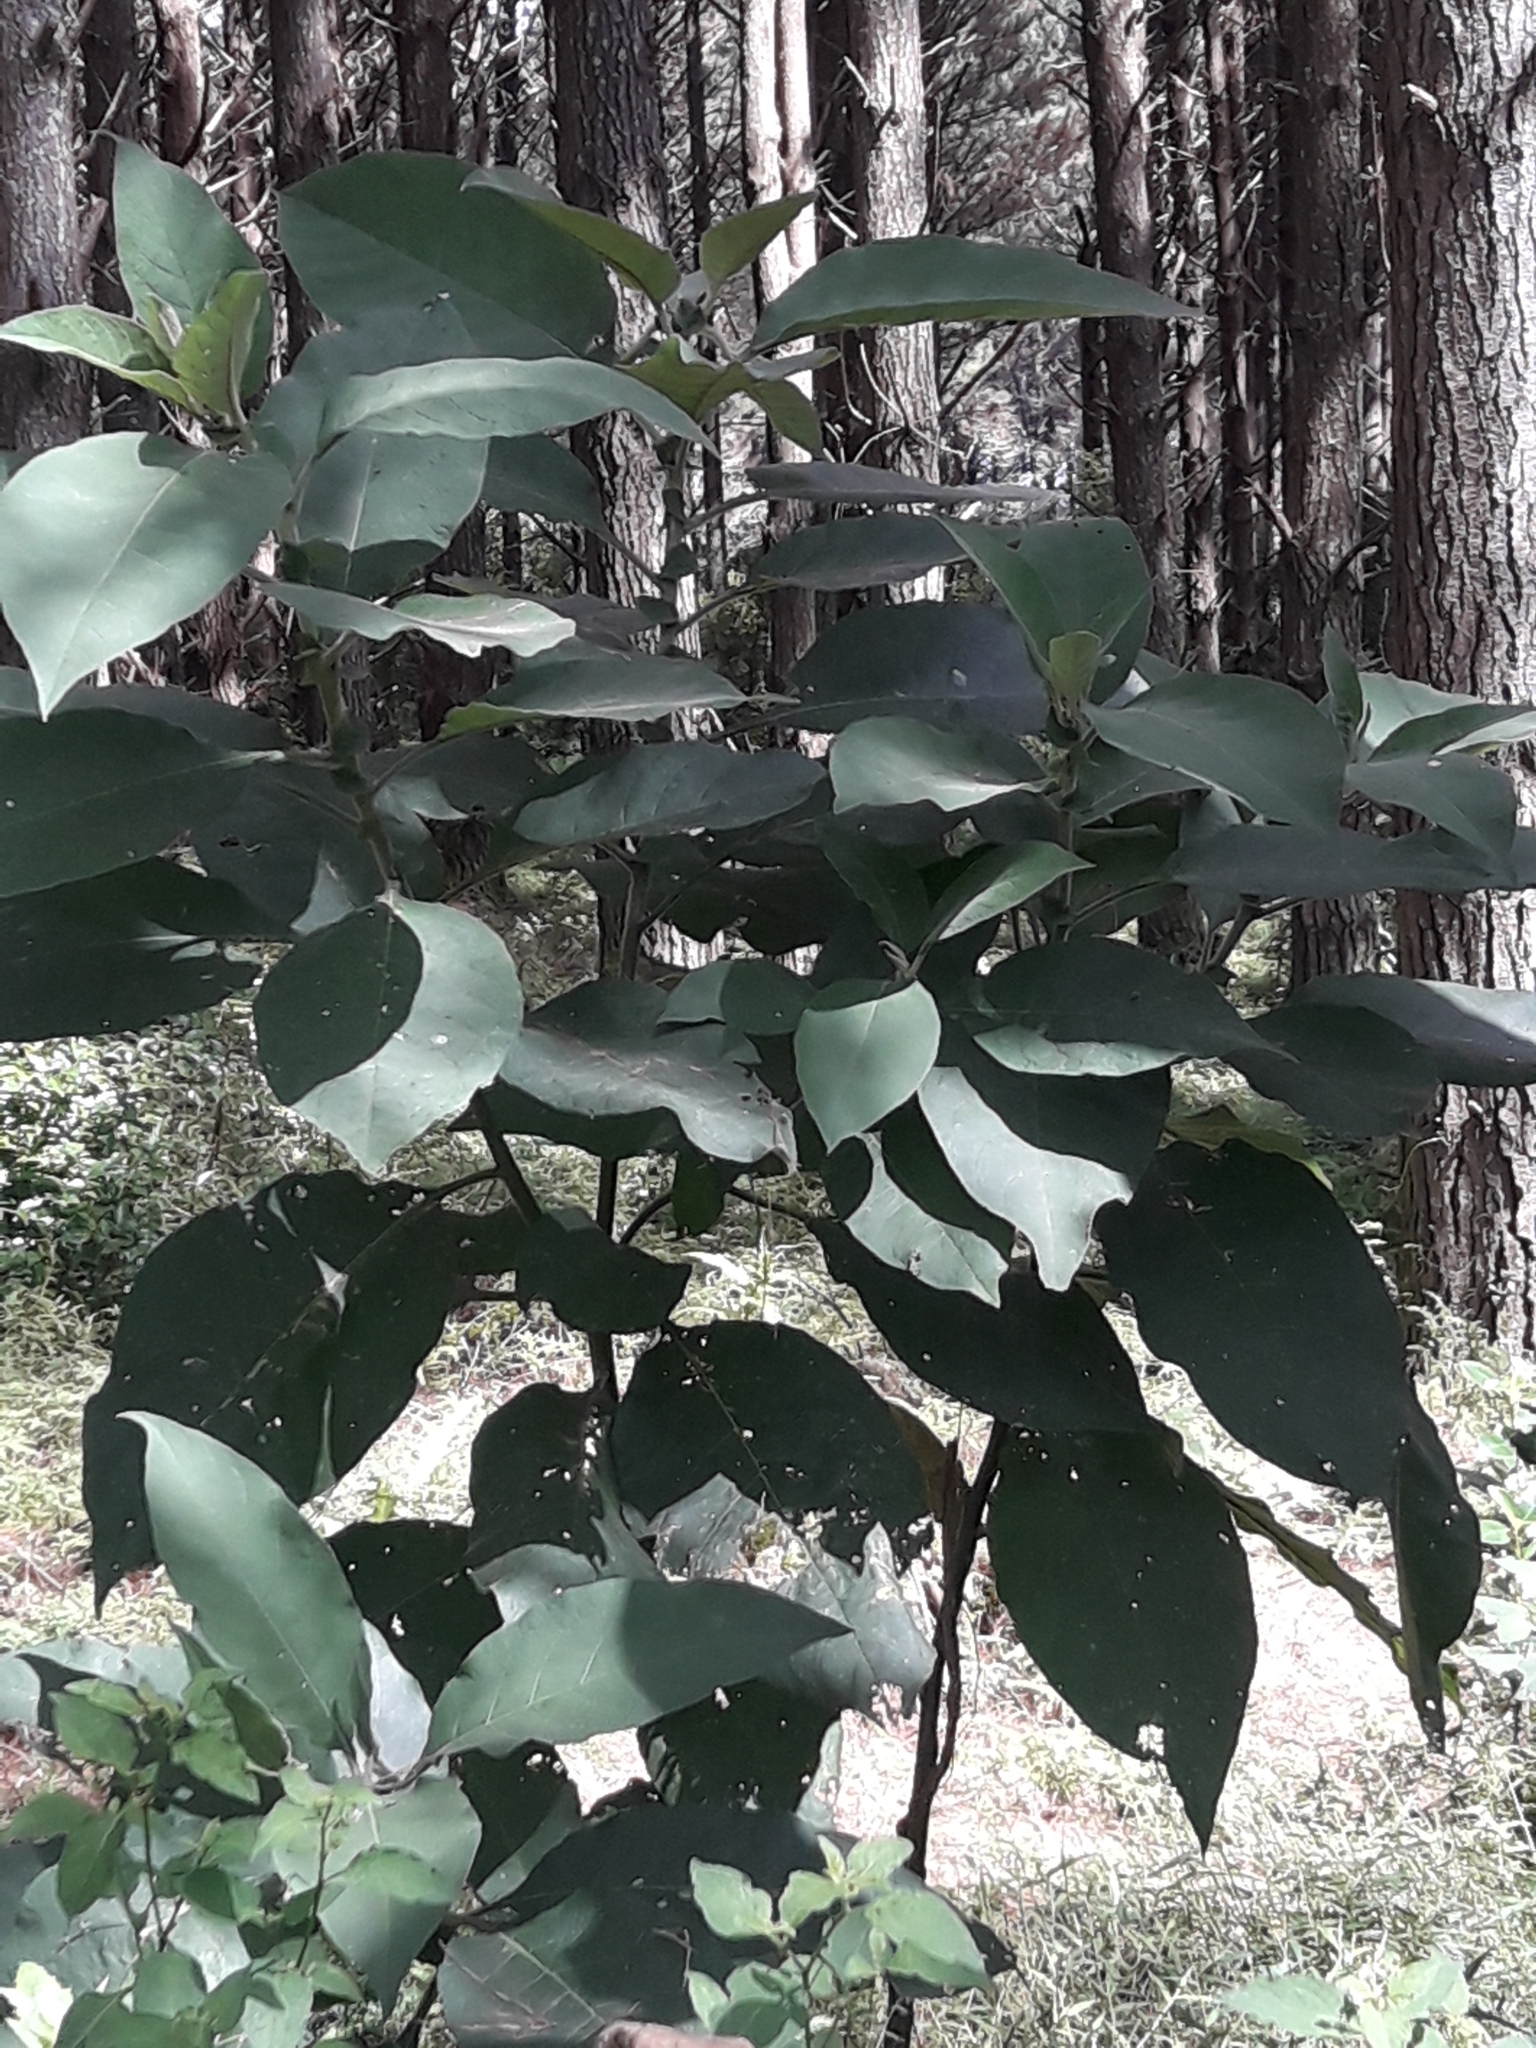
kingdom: Plantae
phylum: Tracheophyta
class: Magnoliopsida
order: Solanales
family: Solanaceae
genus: Solanum
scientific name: Solanum mauritianum
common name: Earleaf nightshade
